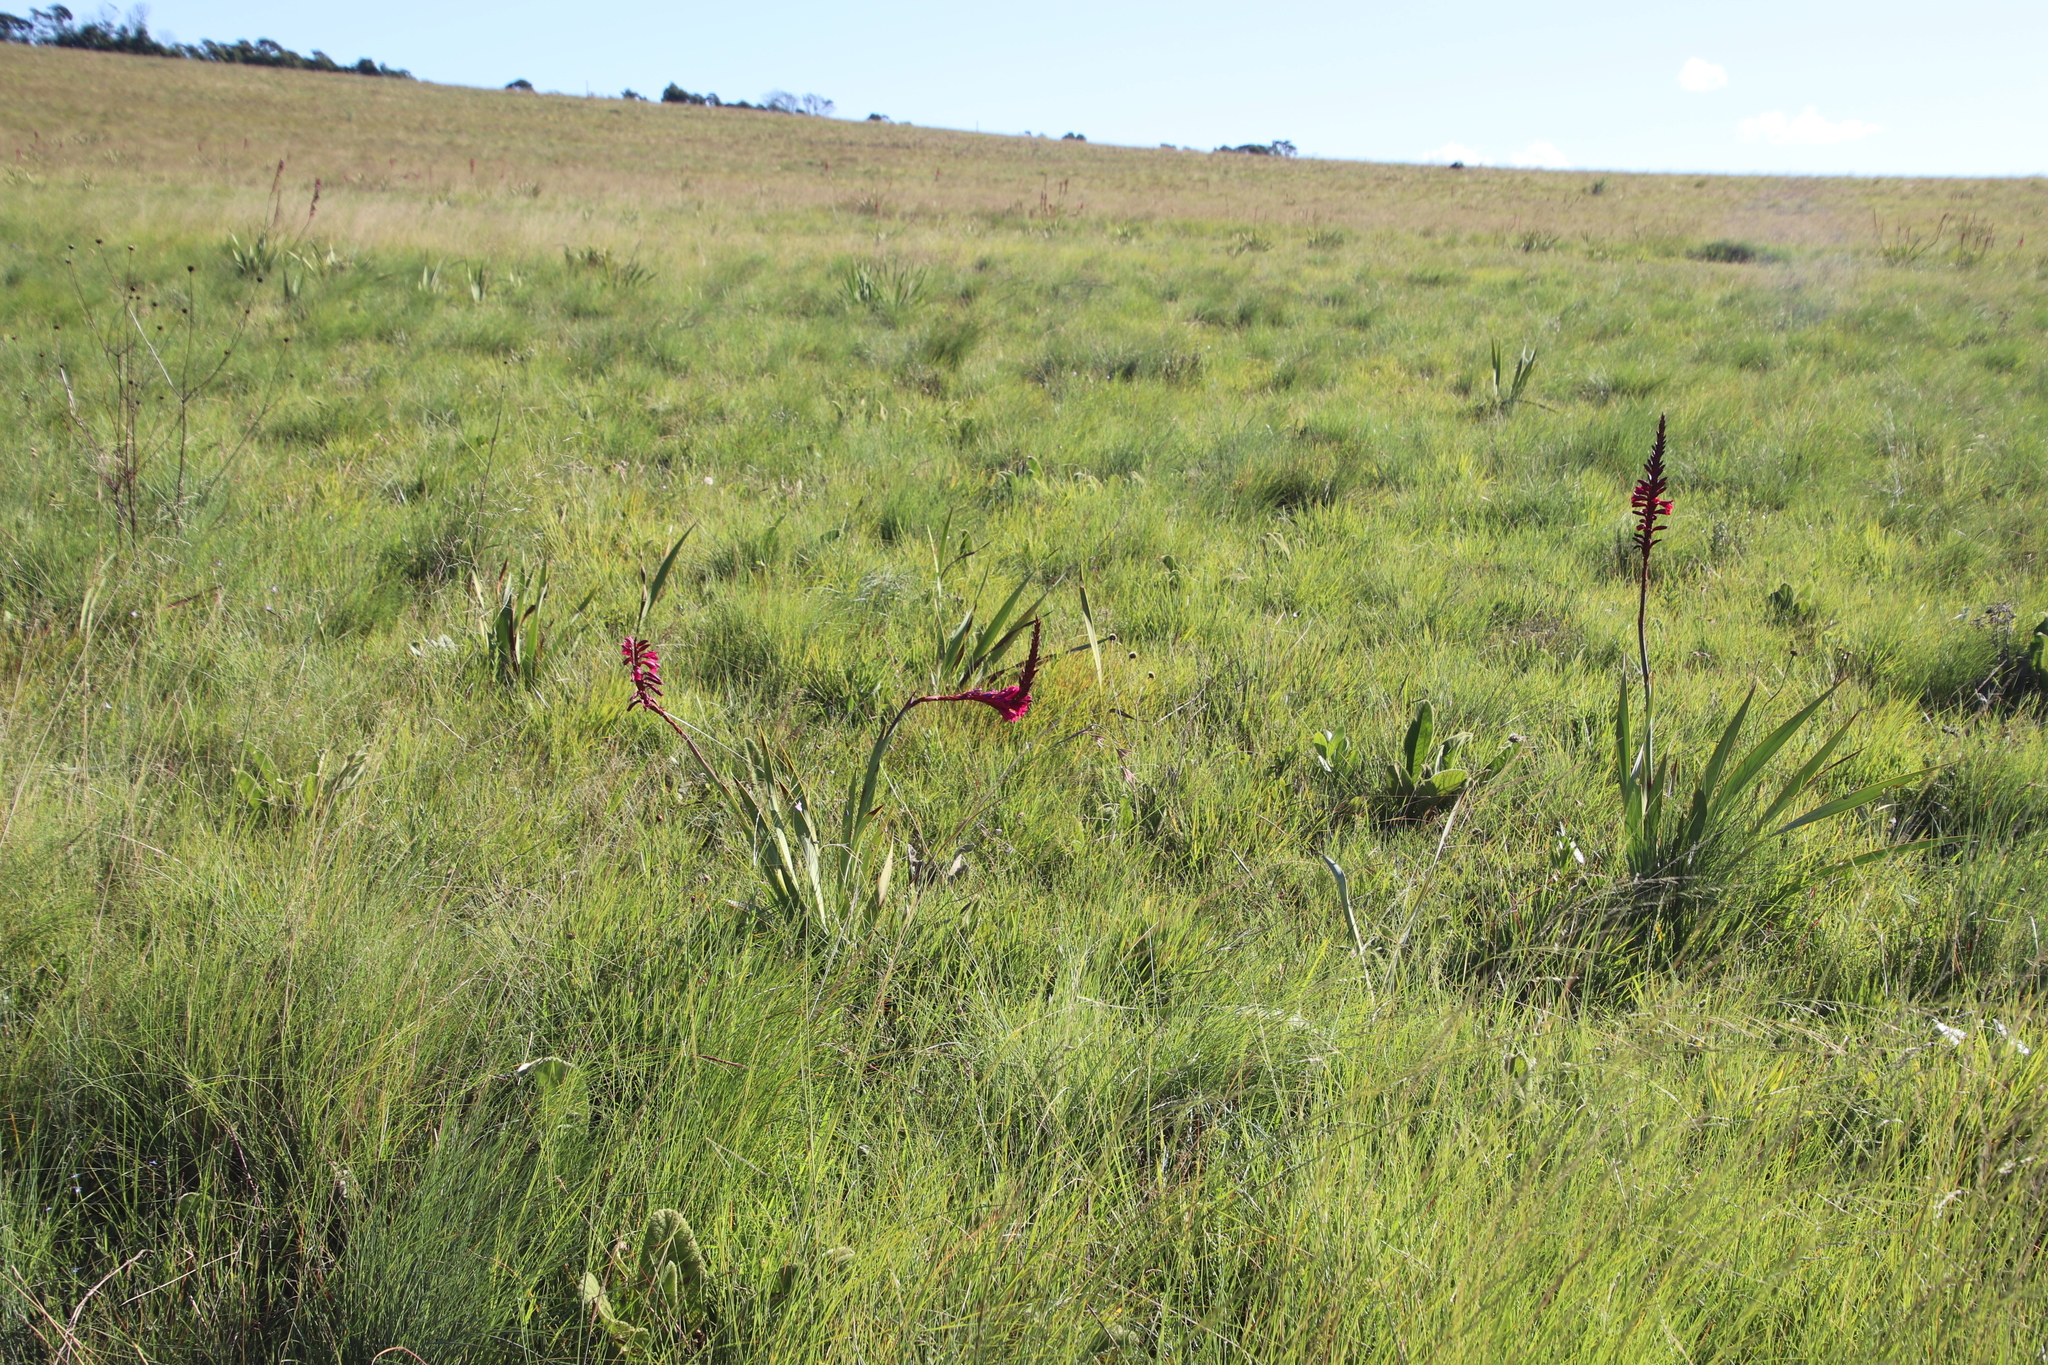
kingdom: Plantae
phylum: Tracheophyta
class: Liliopsida
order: Asparagales
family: Iridaceae
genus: Watsonia
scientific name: Watsonia pulchra
